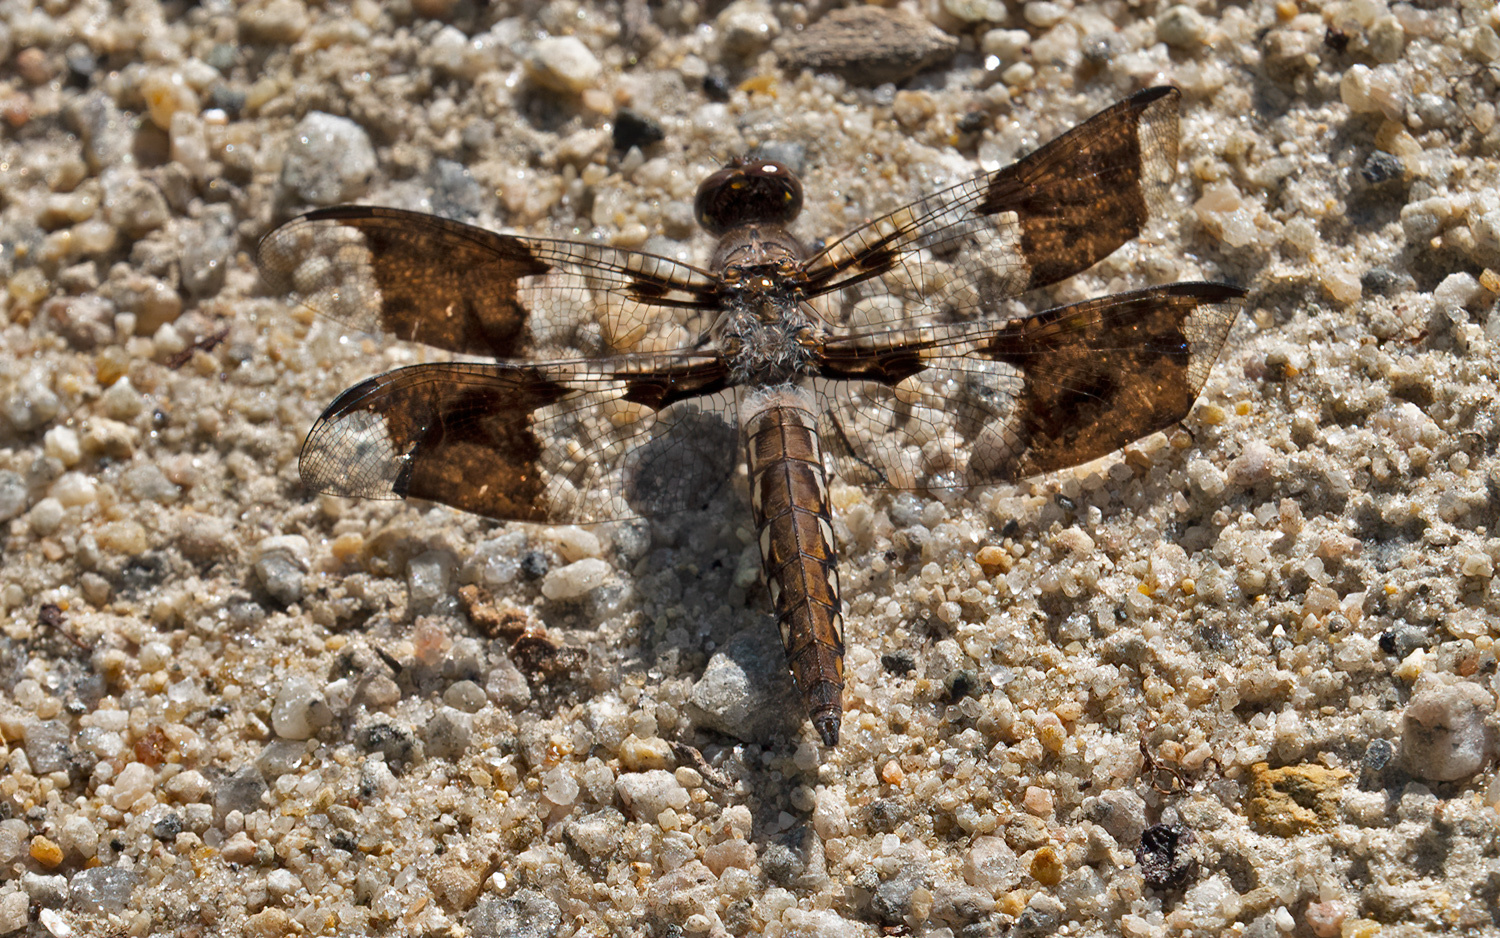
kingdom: Animalia
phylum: Arthropoda
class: Insecta
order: Odonata
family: Libellulidae
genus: Plathemis
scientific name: Plathemis lydia
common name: Common whitetail
